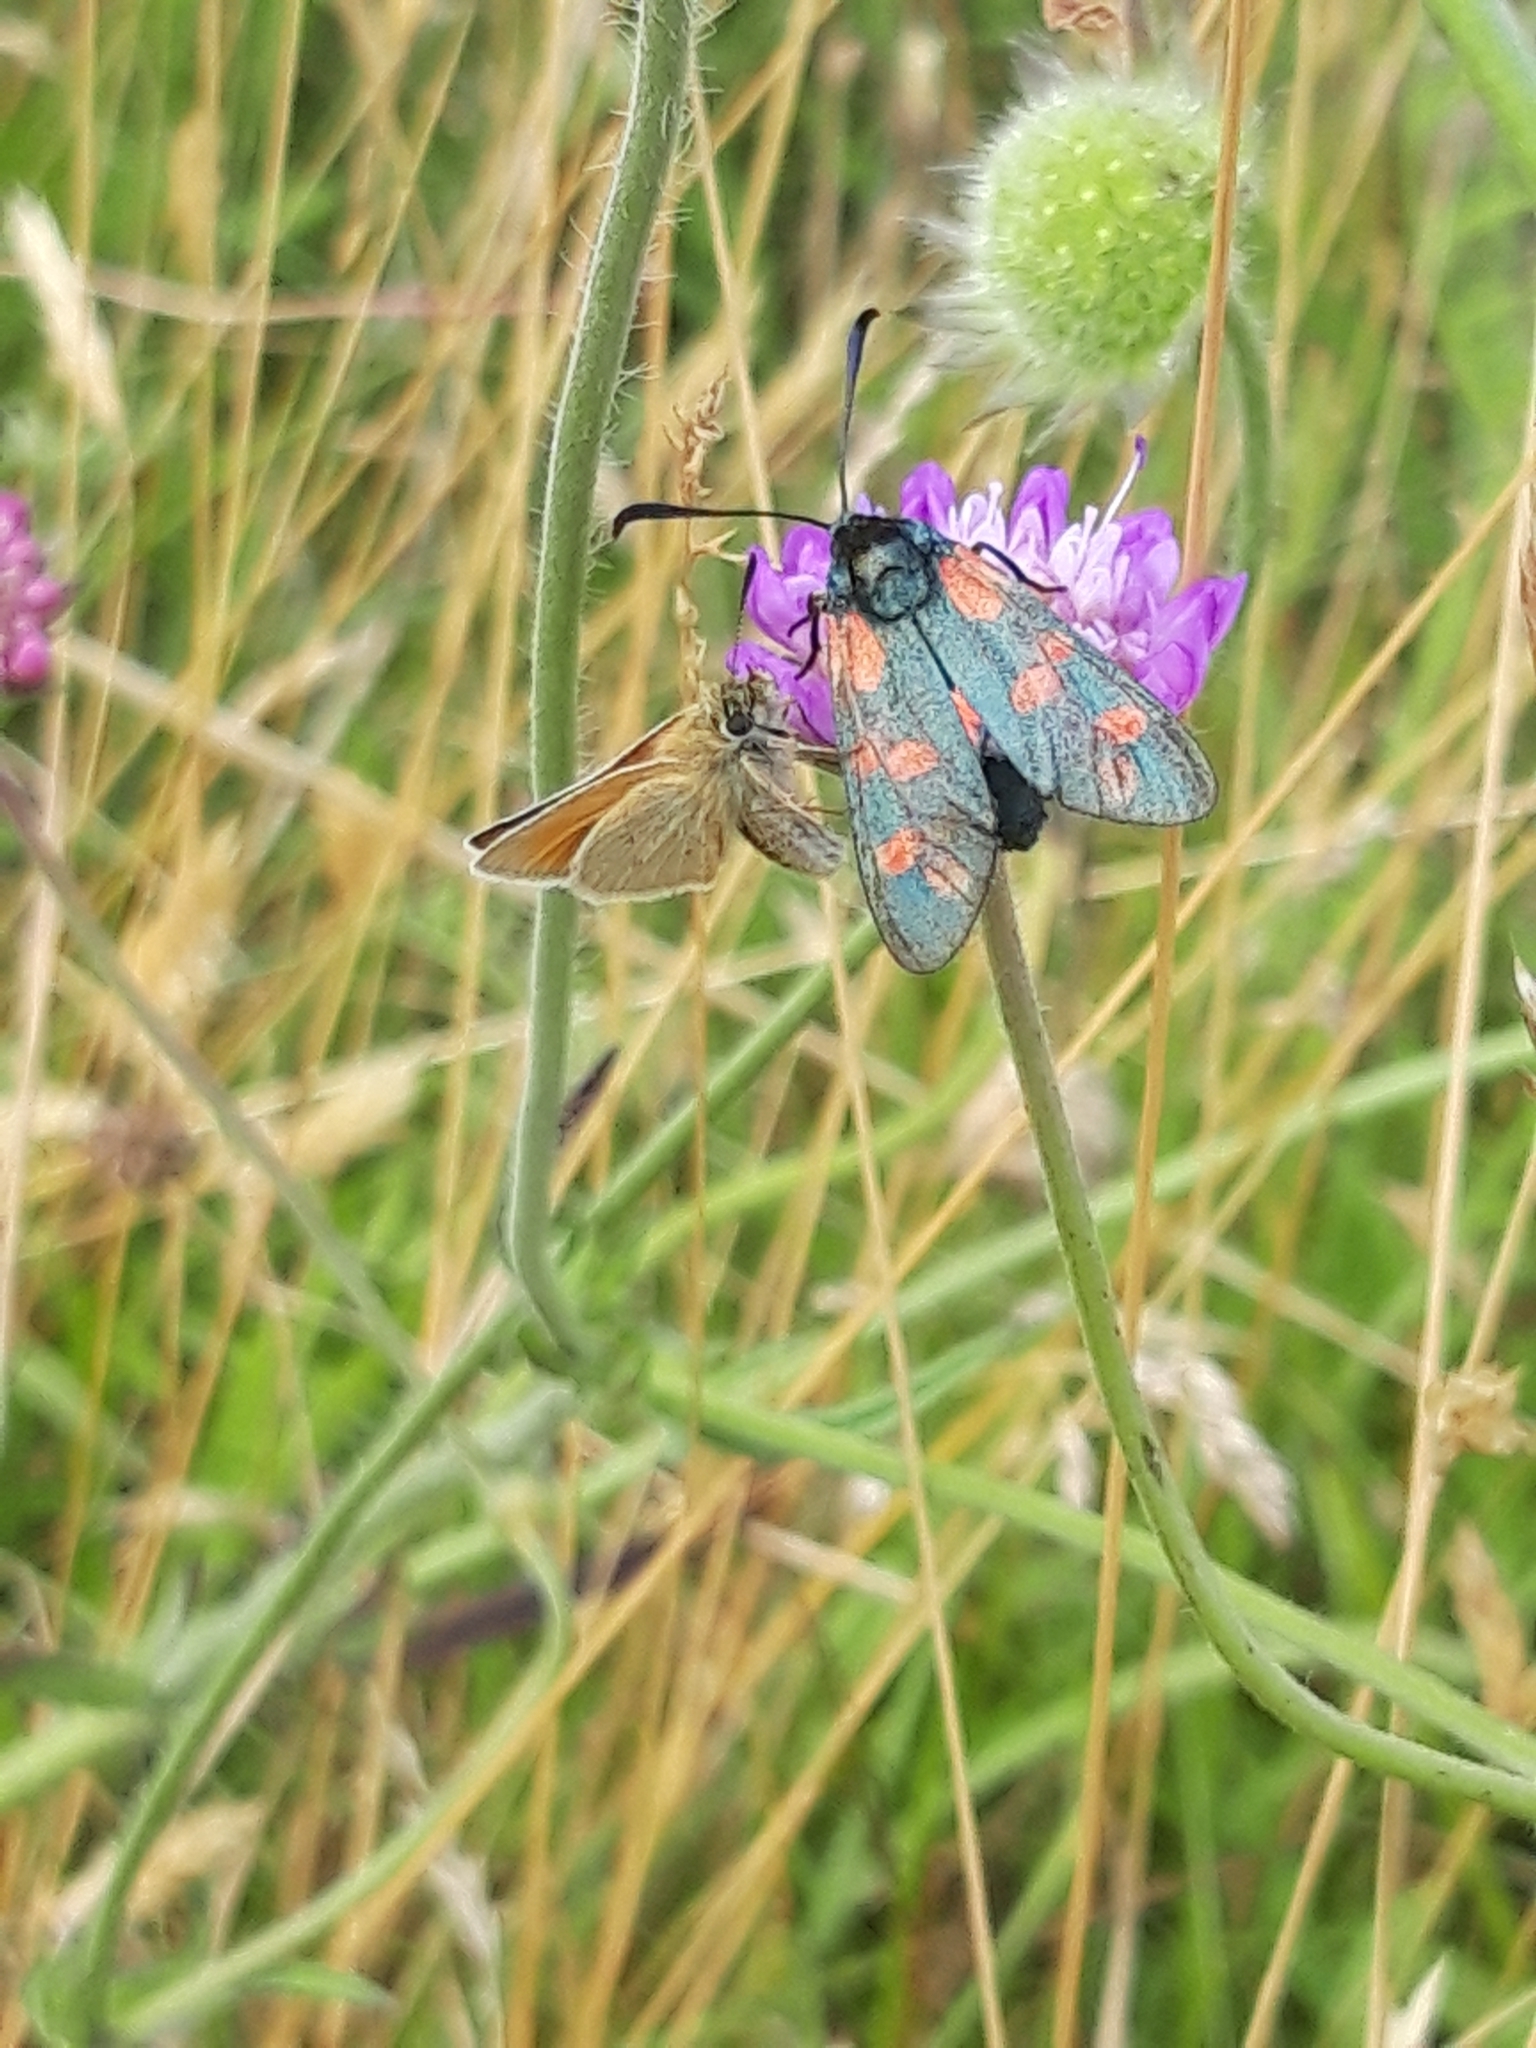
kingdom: Animalia
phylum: Arthropoda
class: Insecta
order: Lepidoptera
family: Zygaenidae
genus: Zygaena
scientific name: Zygaena filipendulae
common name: Six-spot burnet
